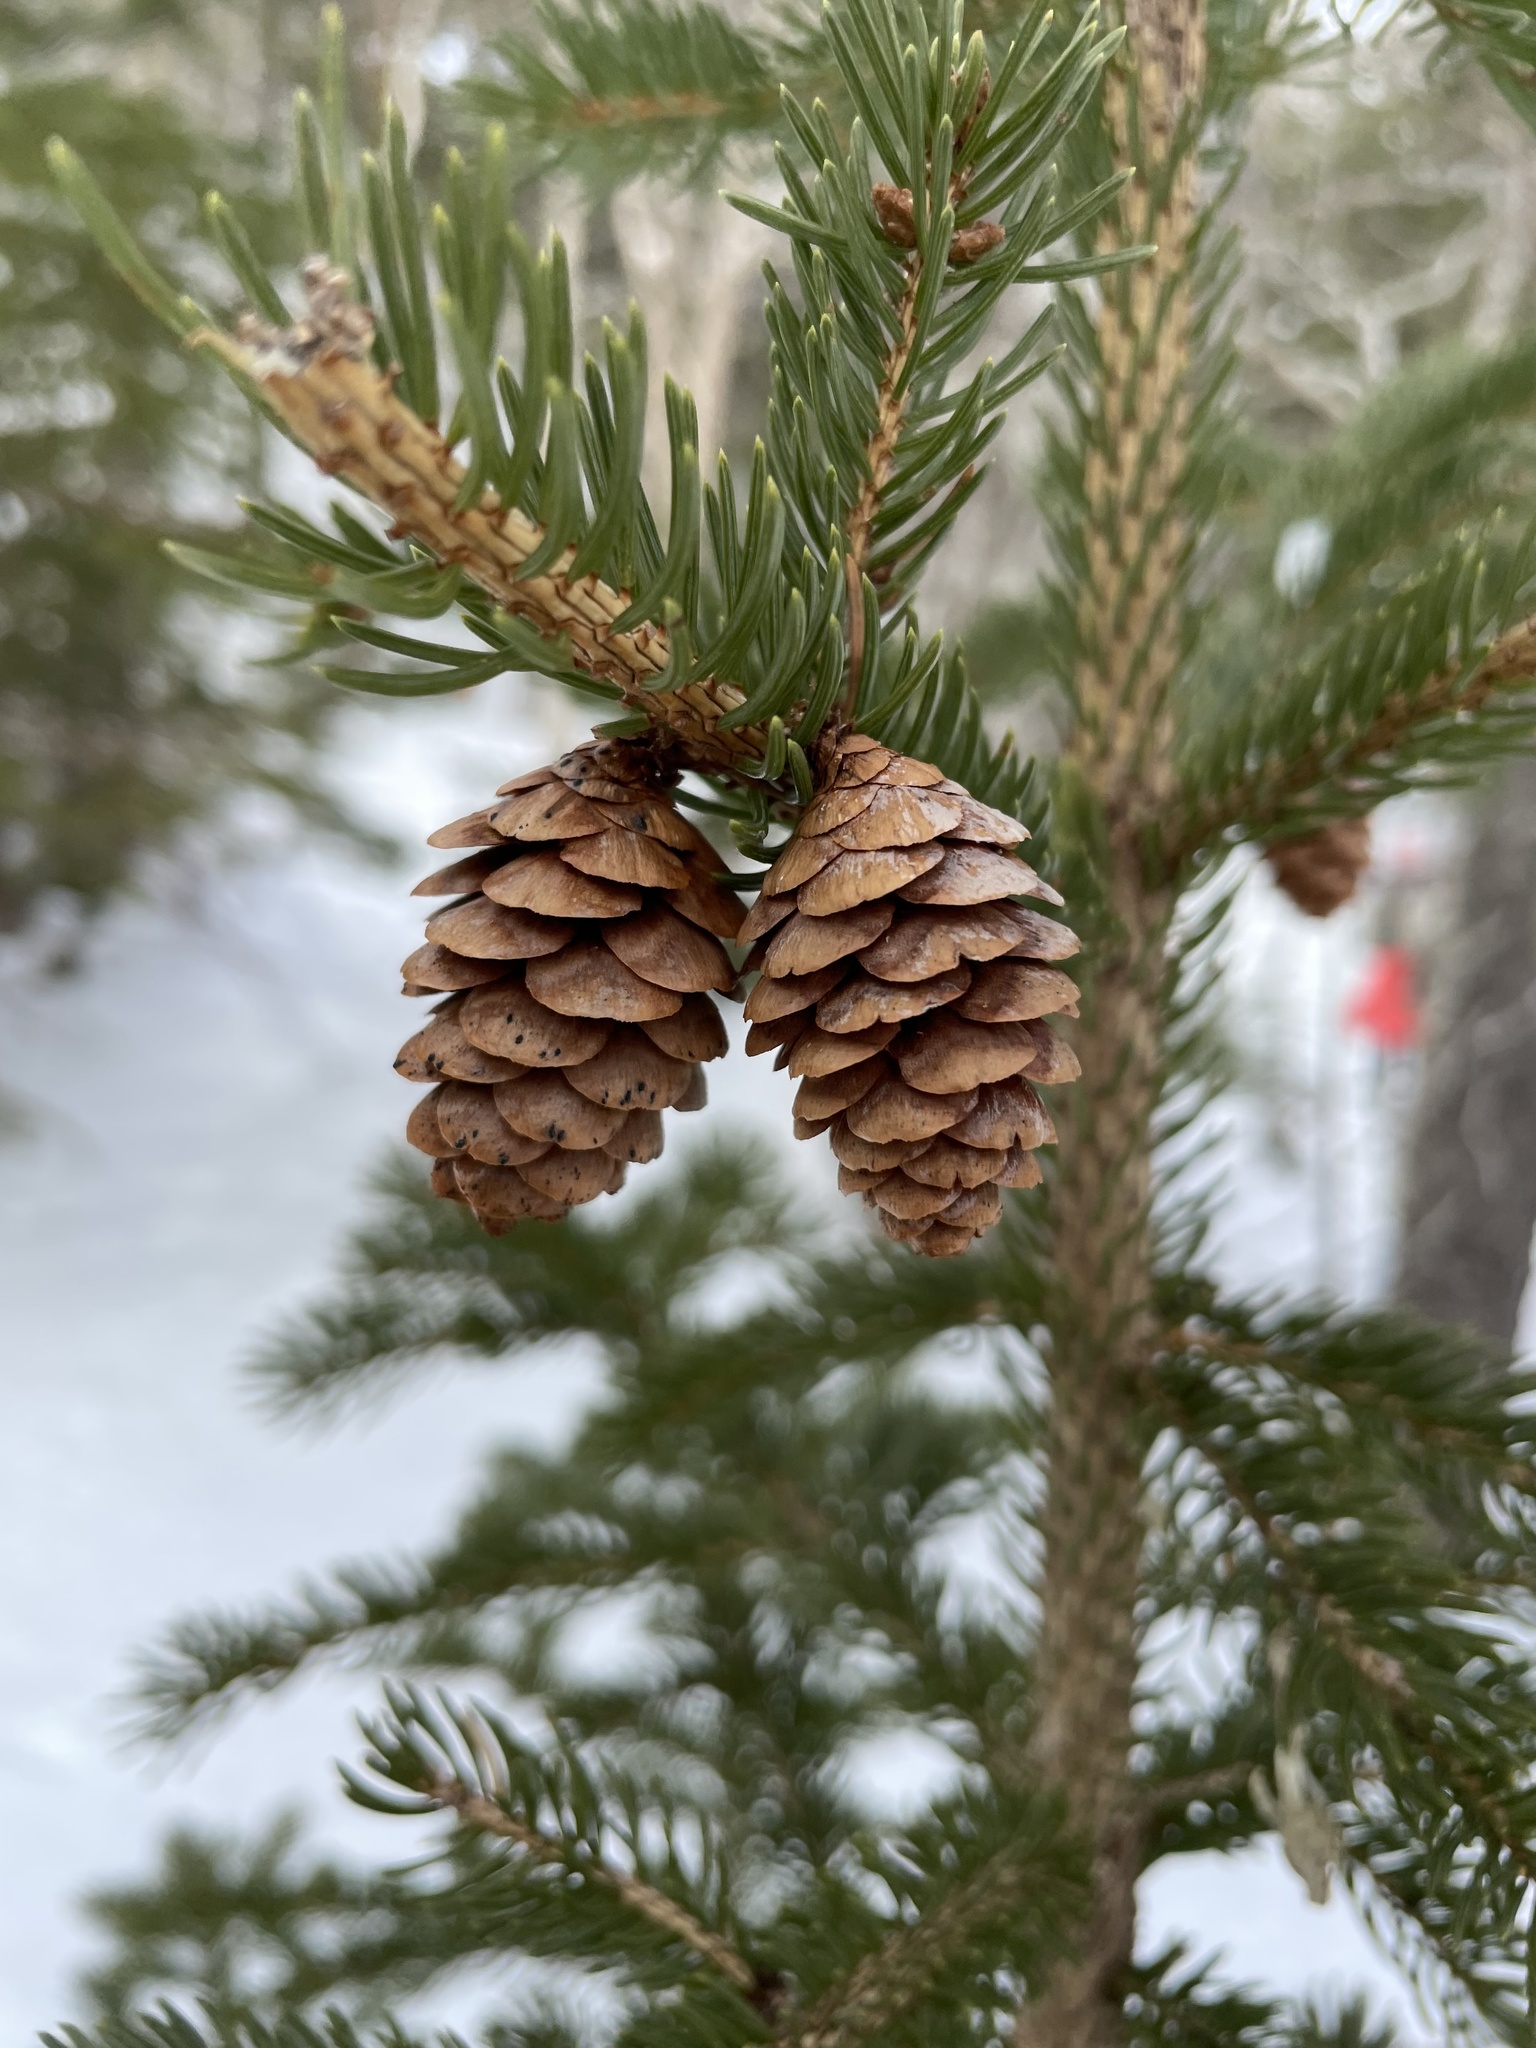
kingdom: Plantae
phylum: Tracheophyta
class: Pinopsida
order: Pinales
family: Pinaceae
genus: Picea
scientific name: Picea glauca
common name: White spruce
